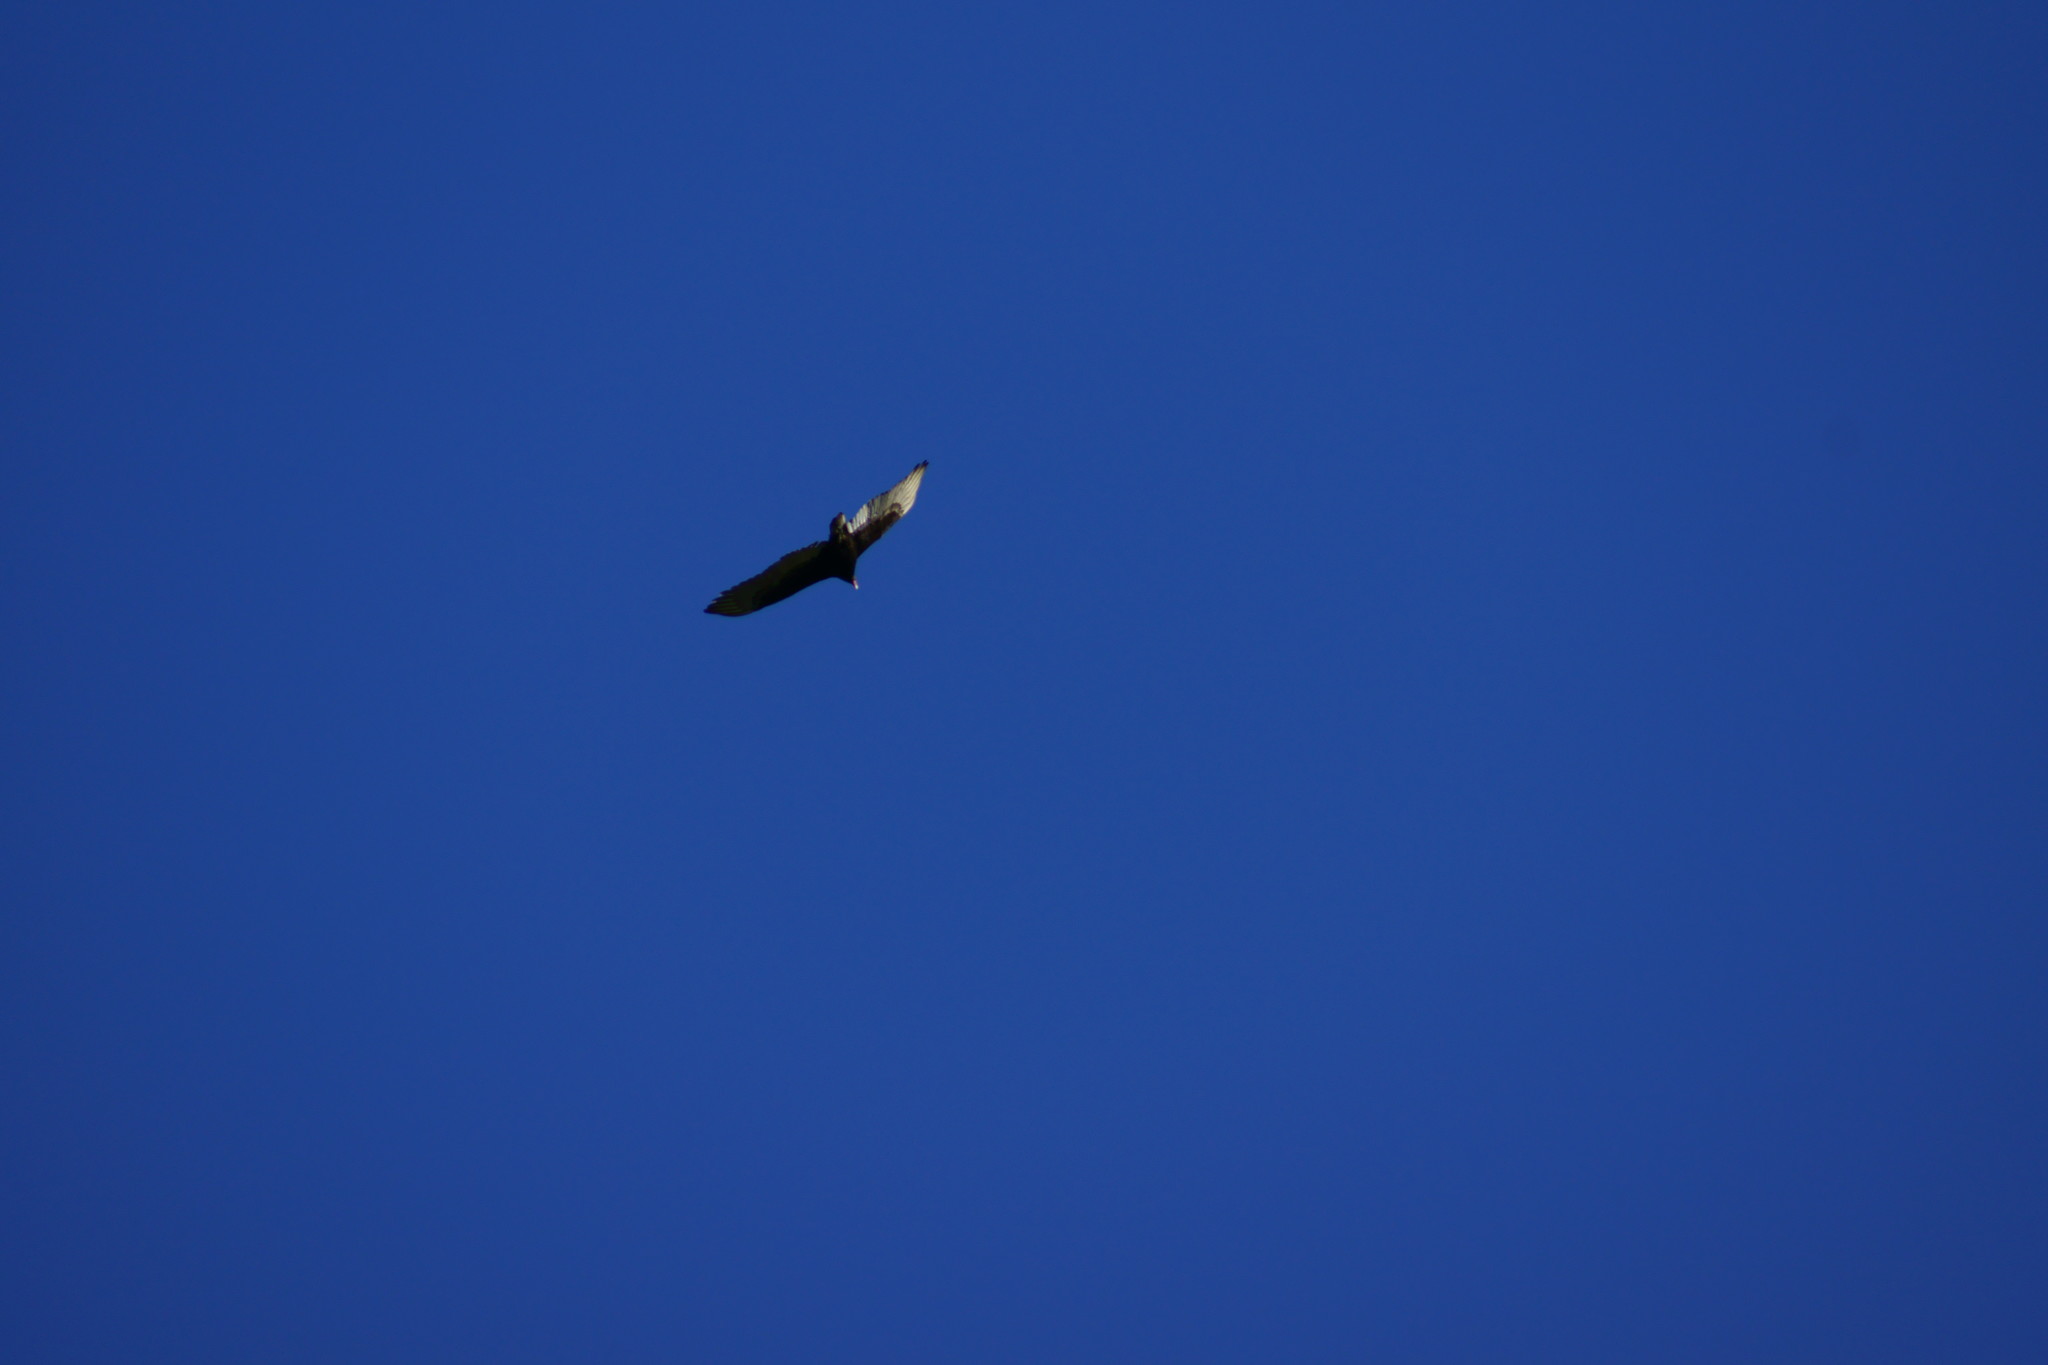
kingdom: Animalia
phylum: Chordata
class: Aves
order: Accipitriformes
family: Cathartidae
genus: Cathartes
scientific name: Cathartes aura
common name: Turkey vulture
